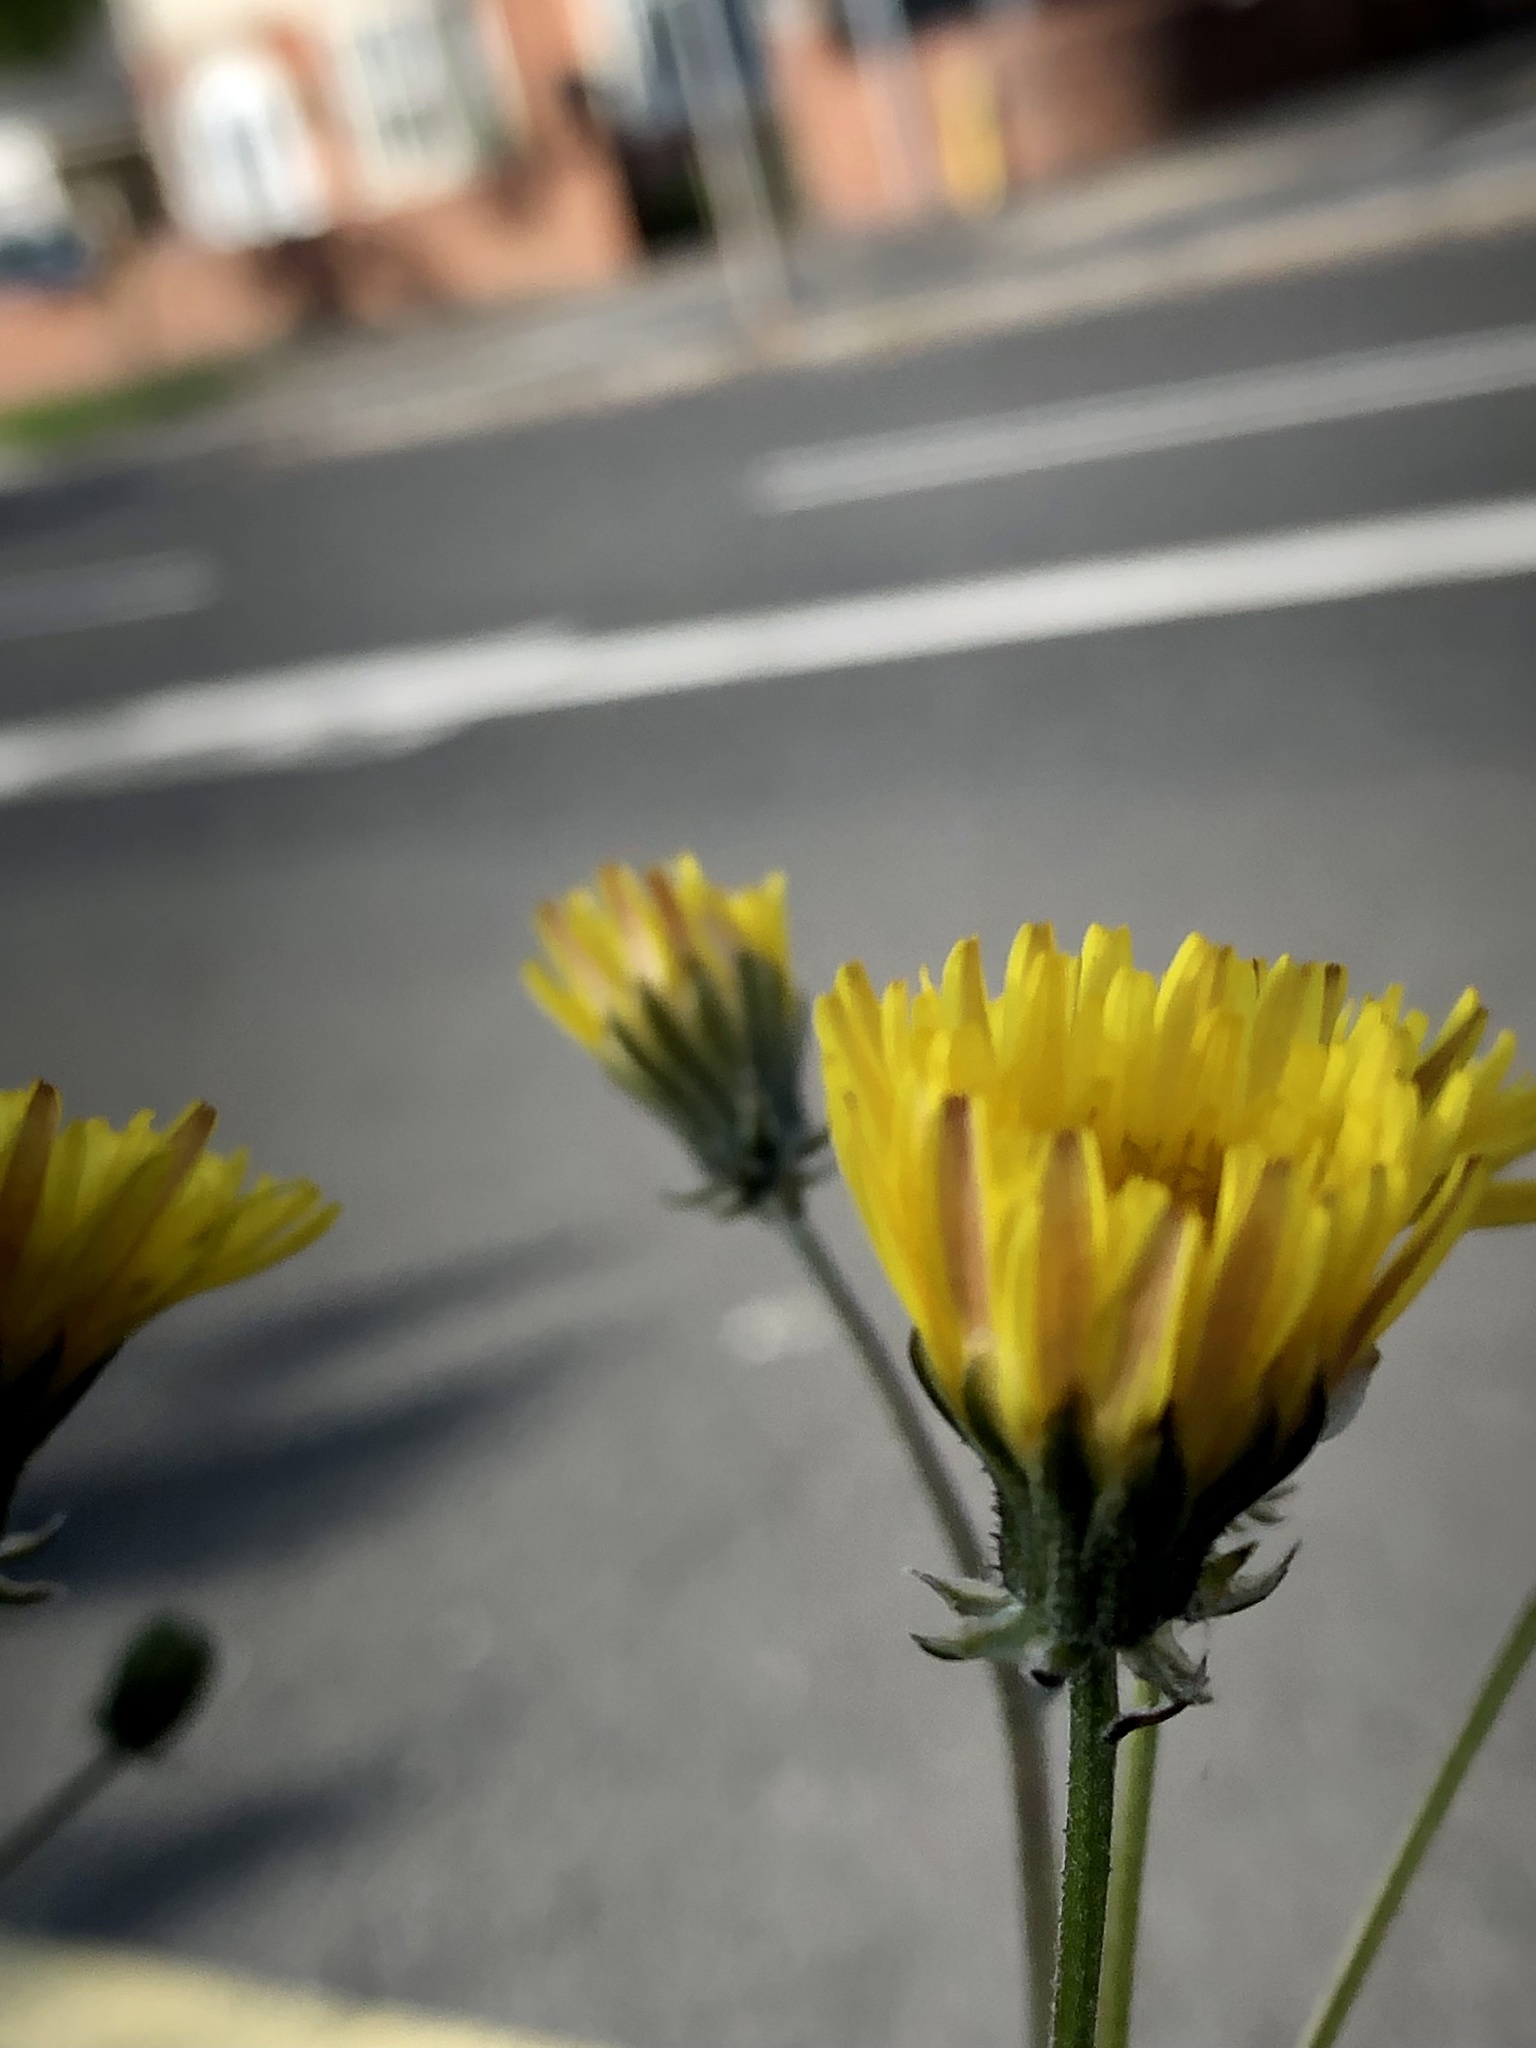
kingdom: Plantae
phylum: Tracheophyta
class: Magnoliopsida
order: Asterales
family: Asteraceae
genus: Crepis
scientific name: Crepis vesicaria
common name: Beaked hawksbeard
